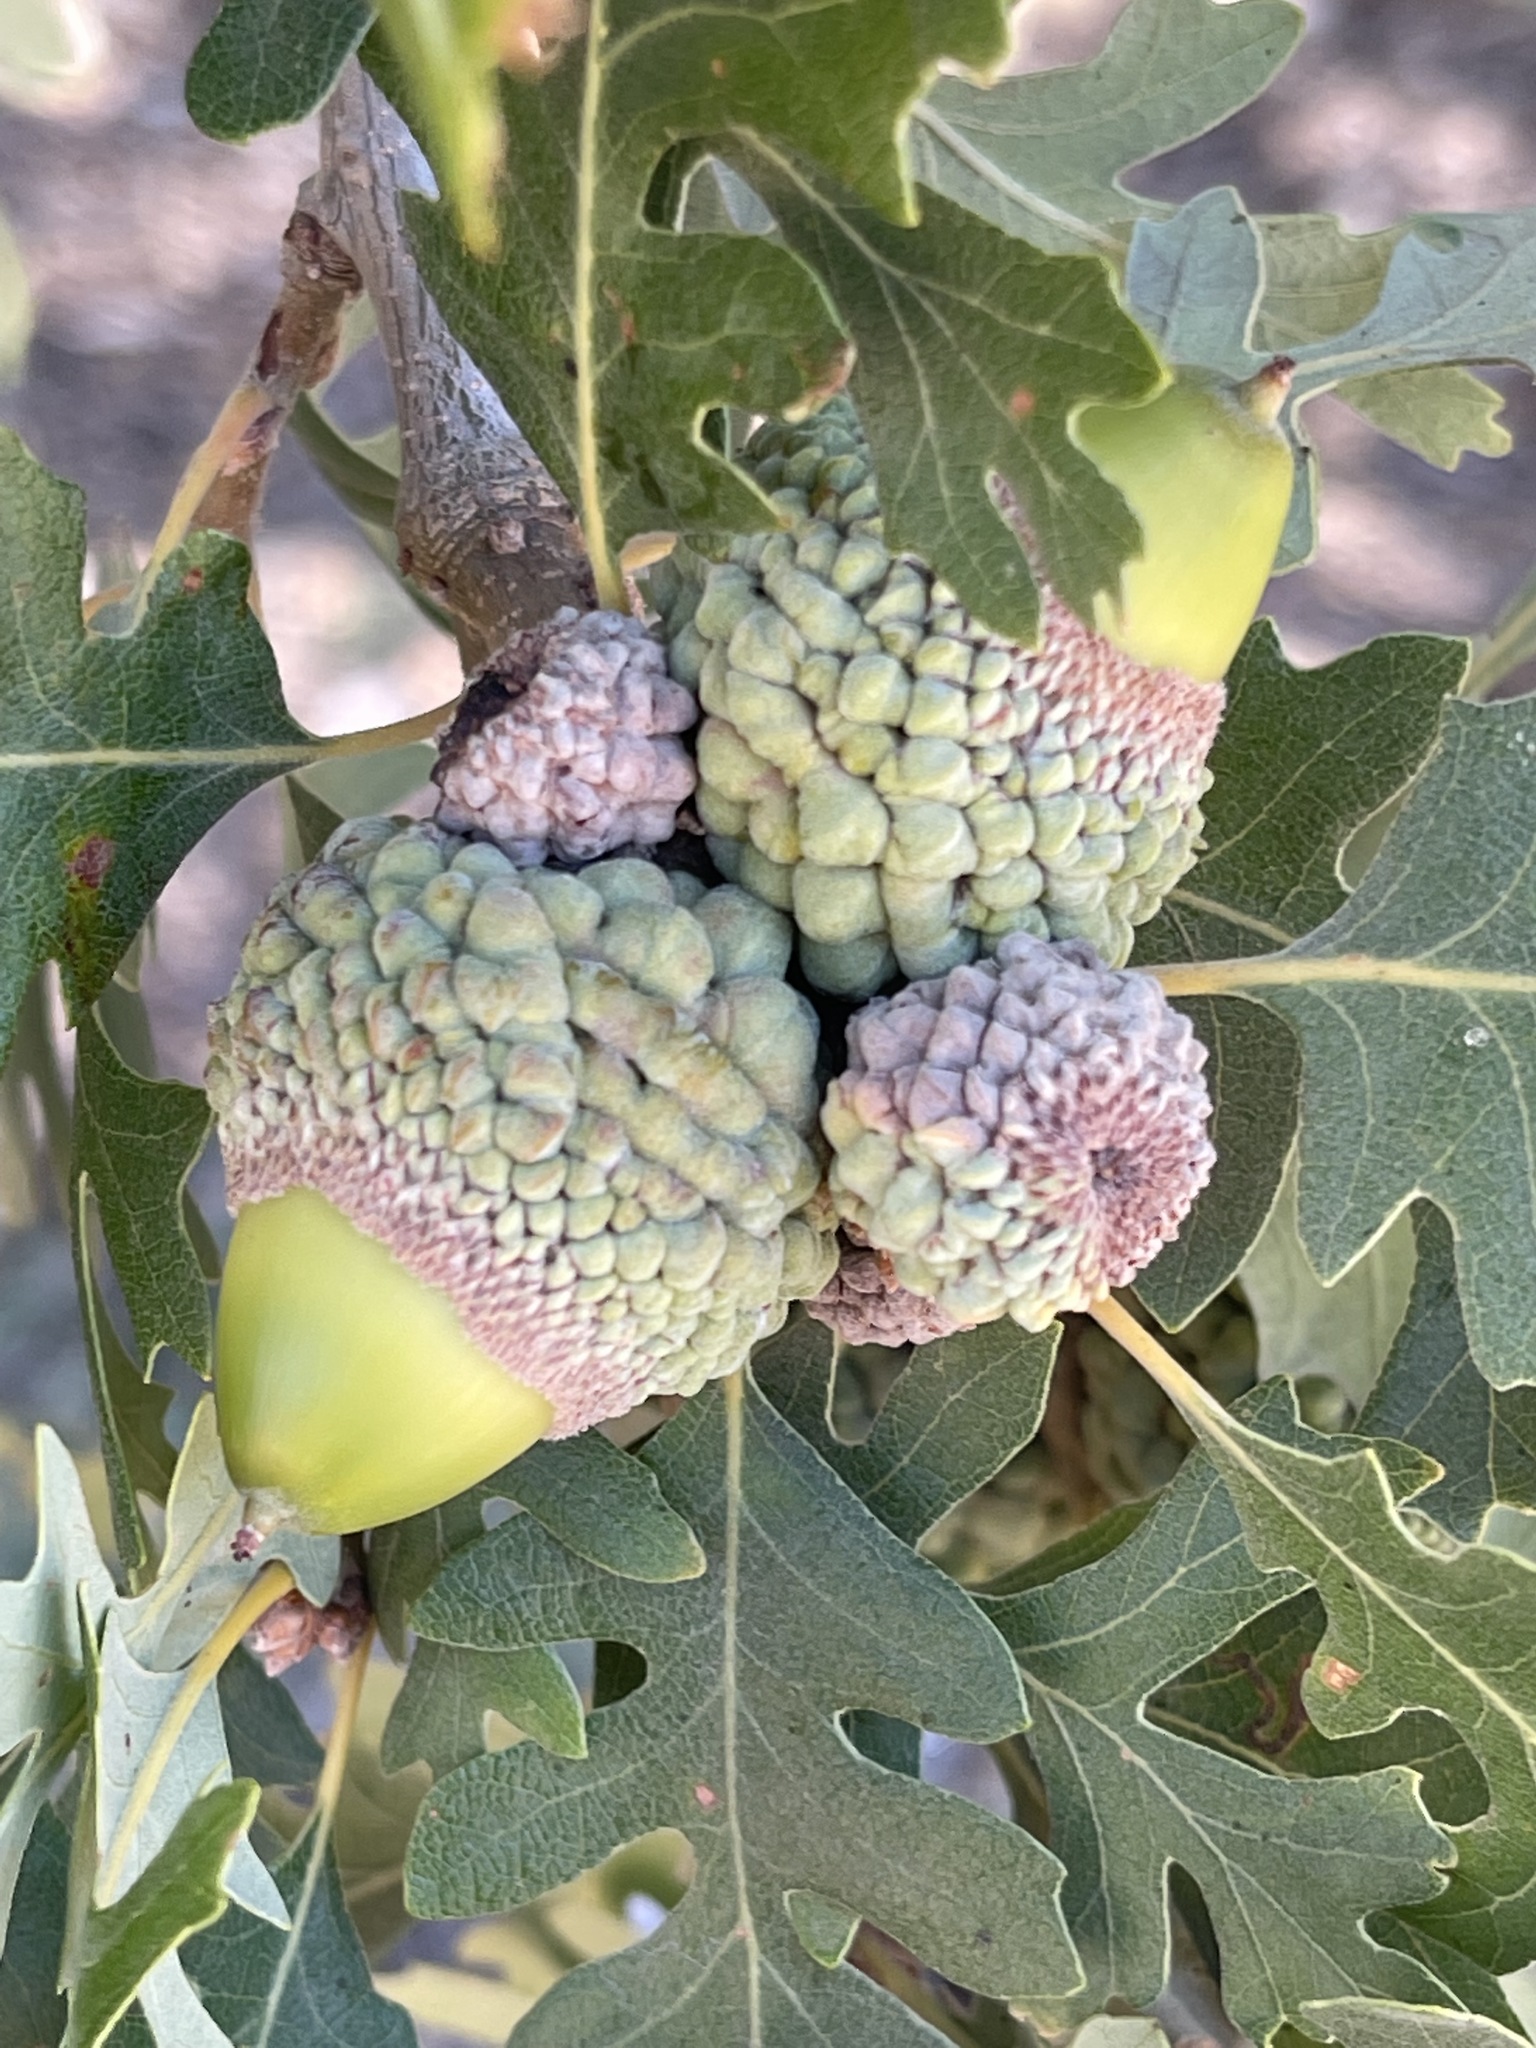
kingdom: Plantae
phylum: Tracheophyta
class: Magnoliopsida
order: Fagales
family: Fagaceae
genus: Quercus
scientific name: Quercus lobata
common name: Valley oak
